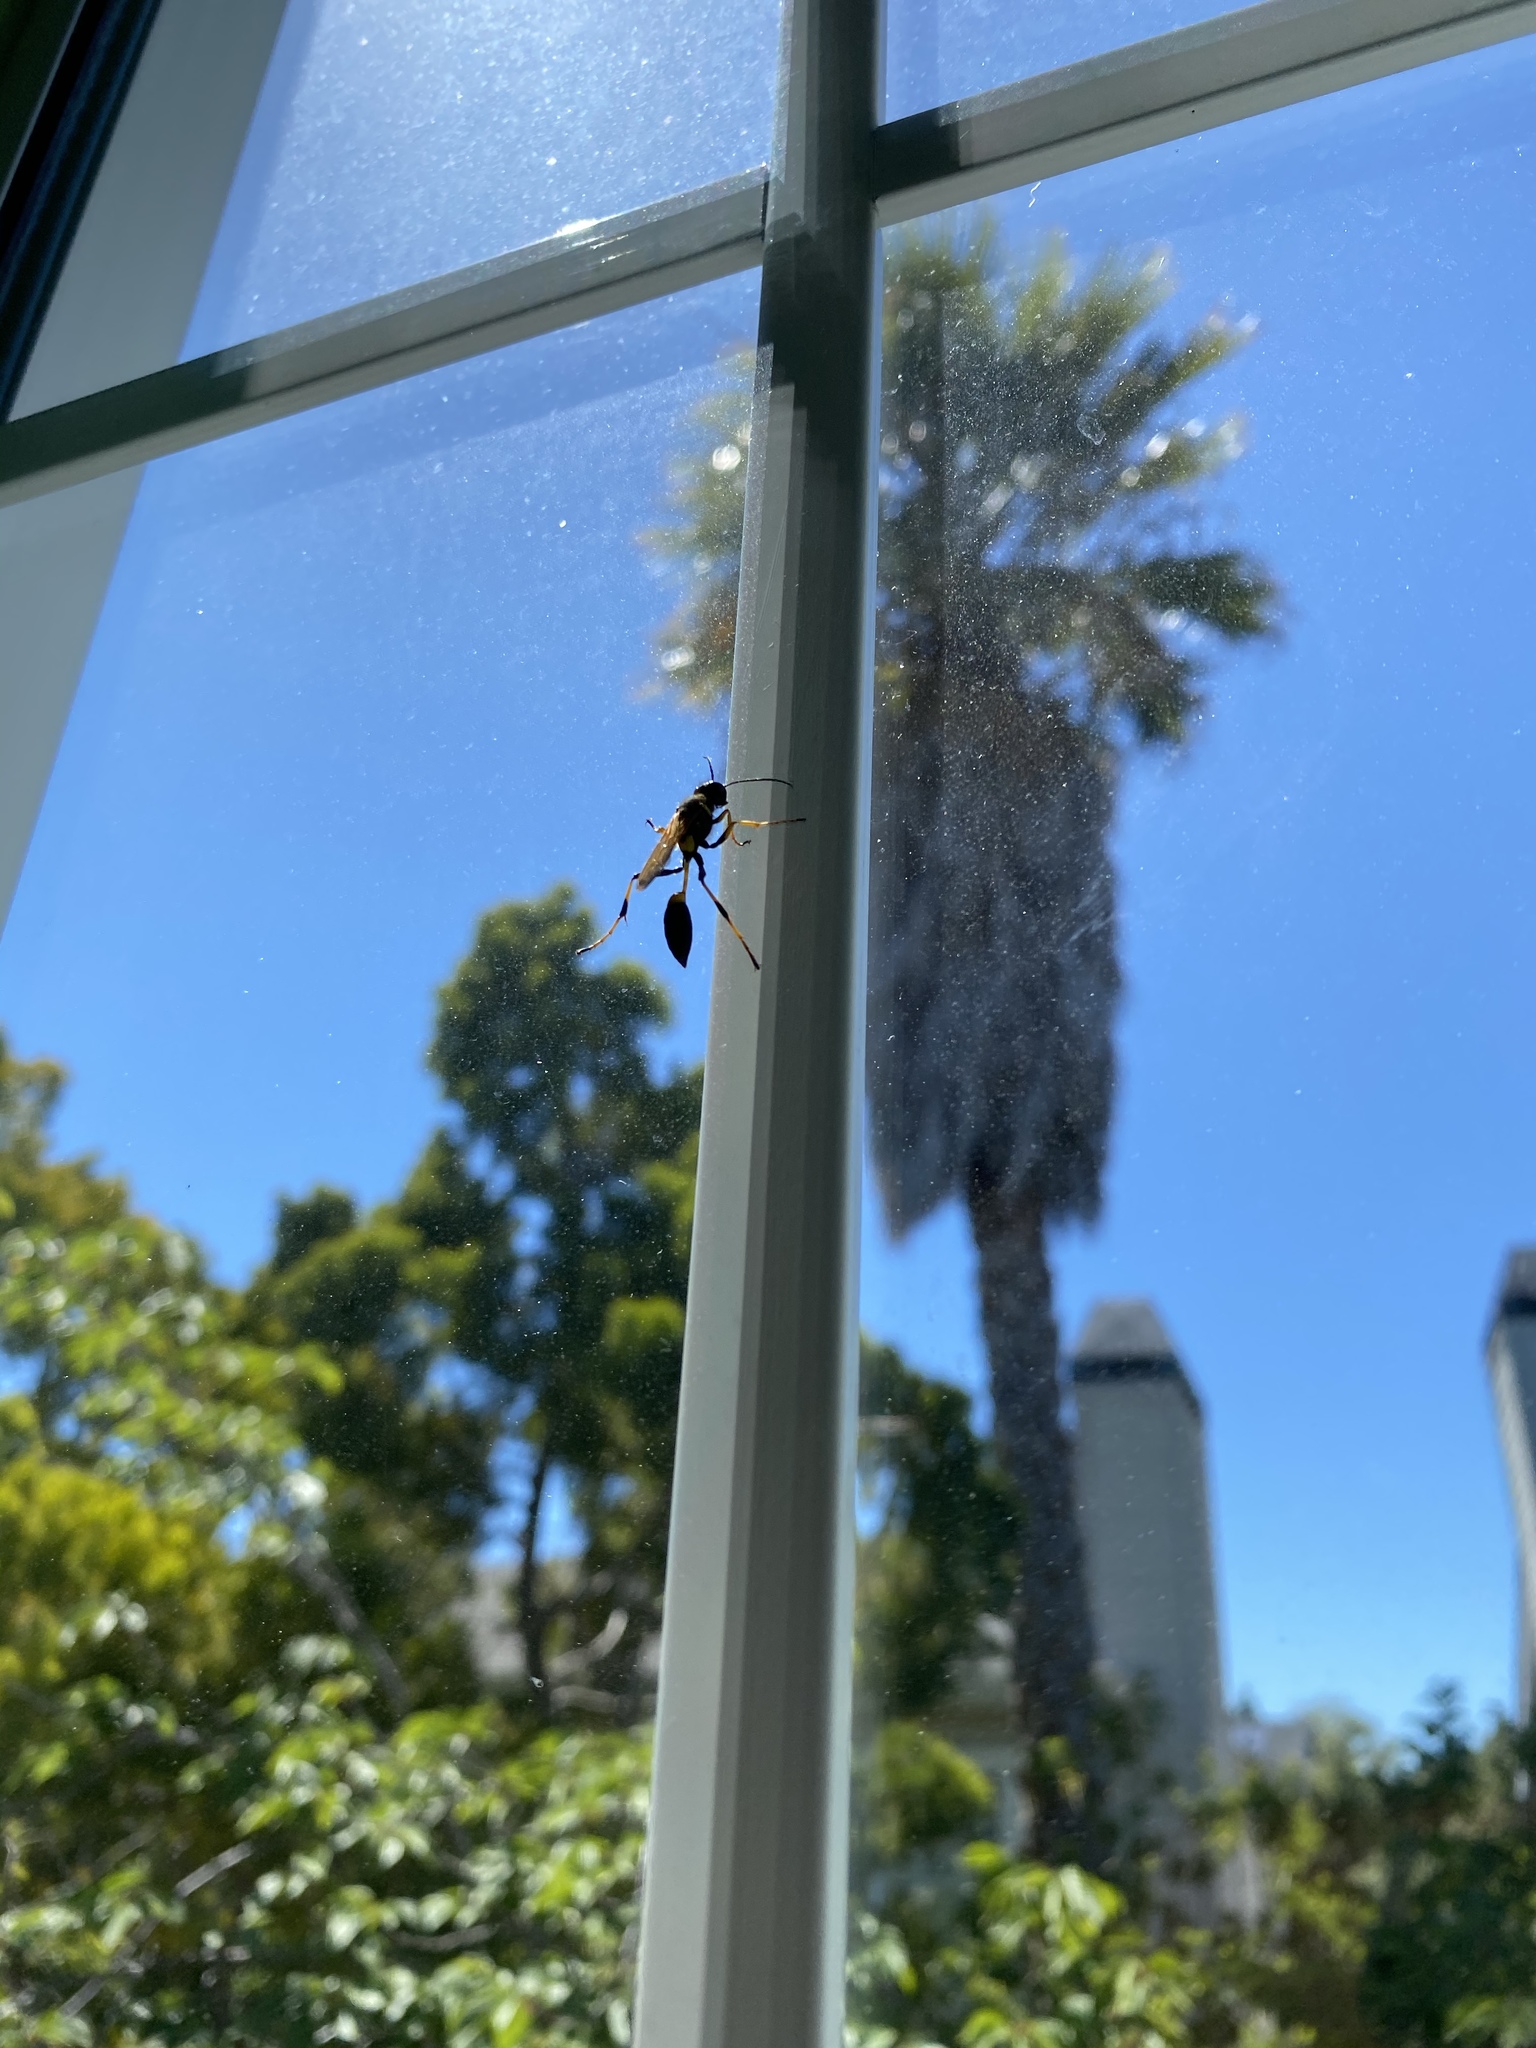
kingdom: Animalia
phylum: Arthropoda
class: Insecta
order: Hymenoptera
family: Sphecidae
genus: Sceliphron
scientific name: Sceliphron caementarium
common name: Mud dauber
